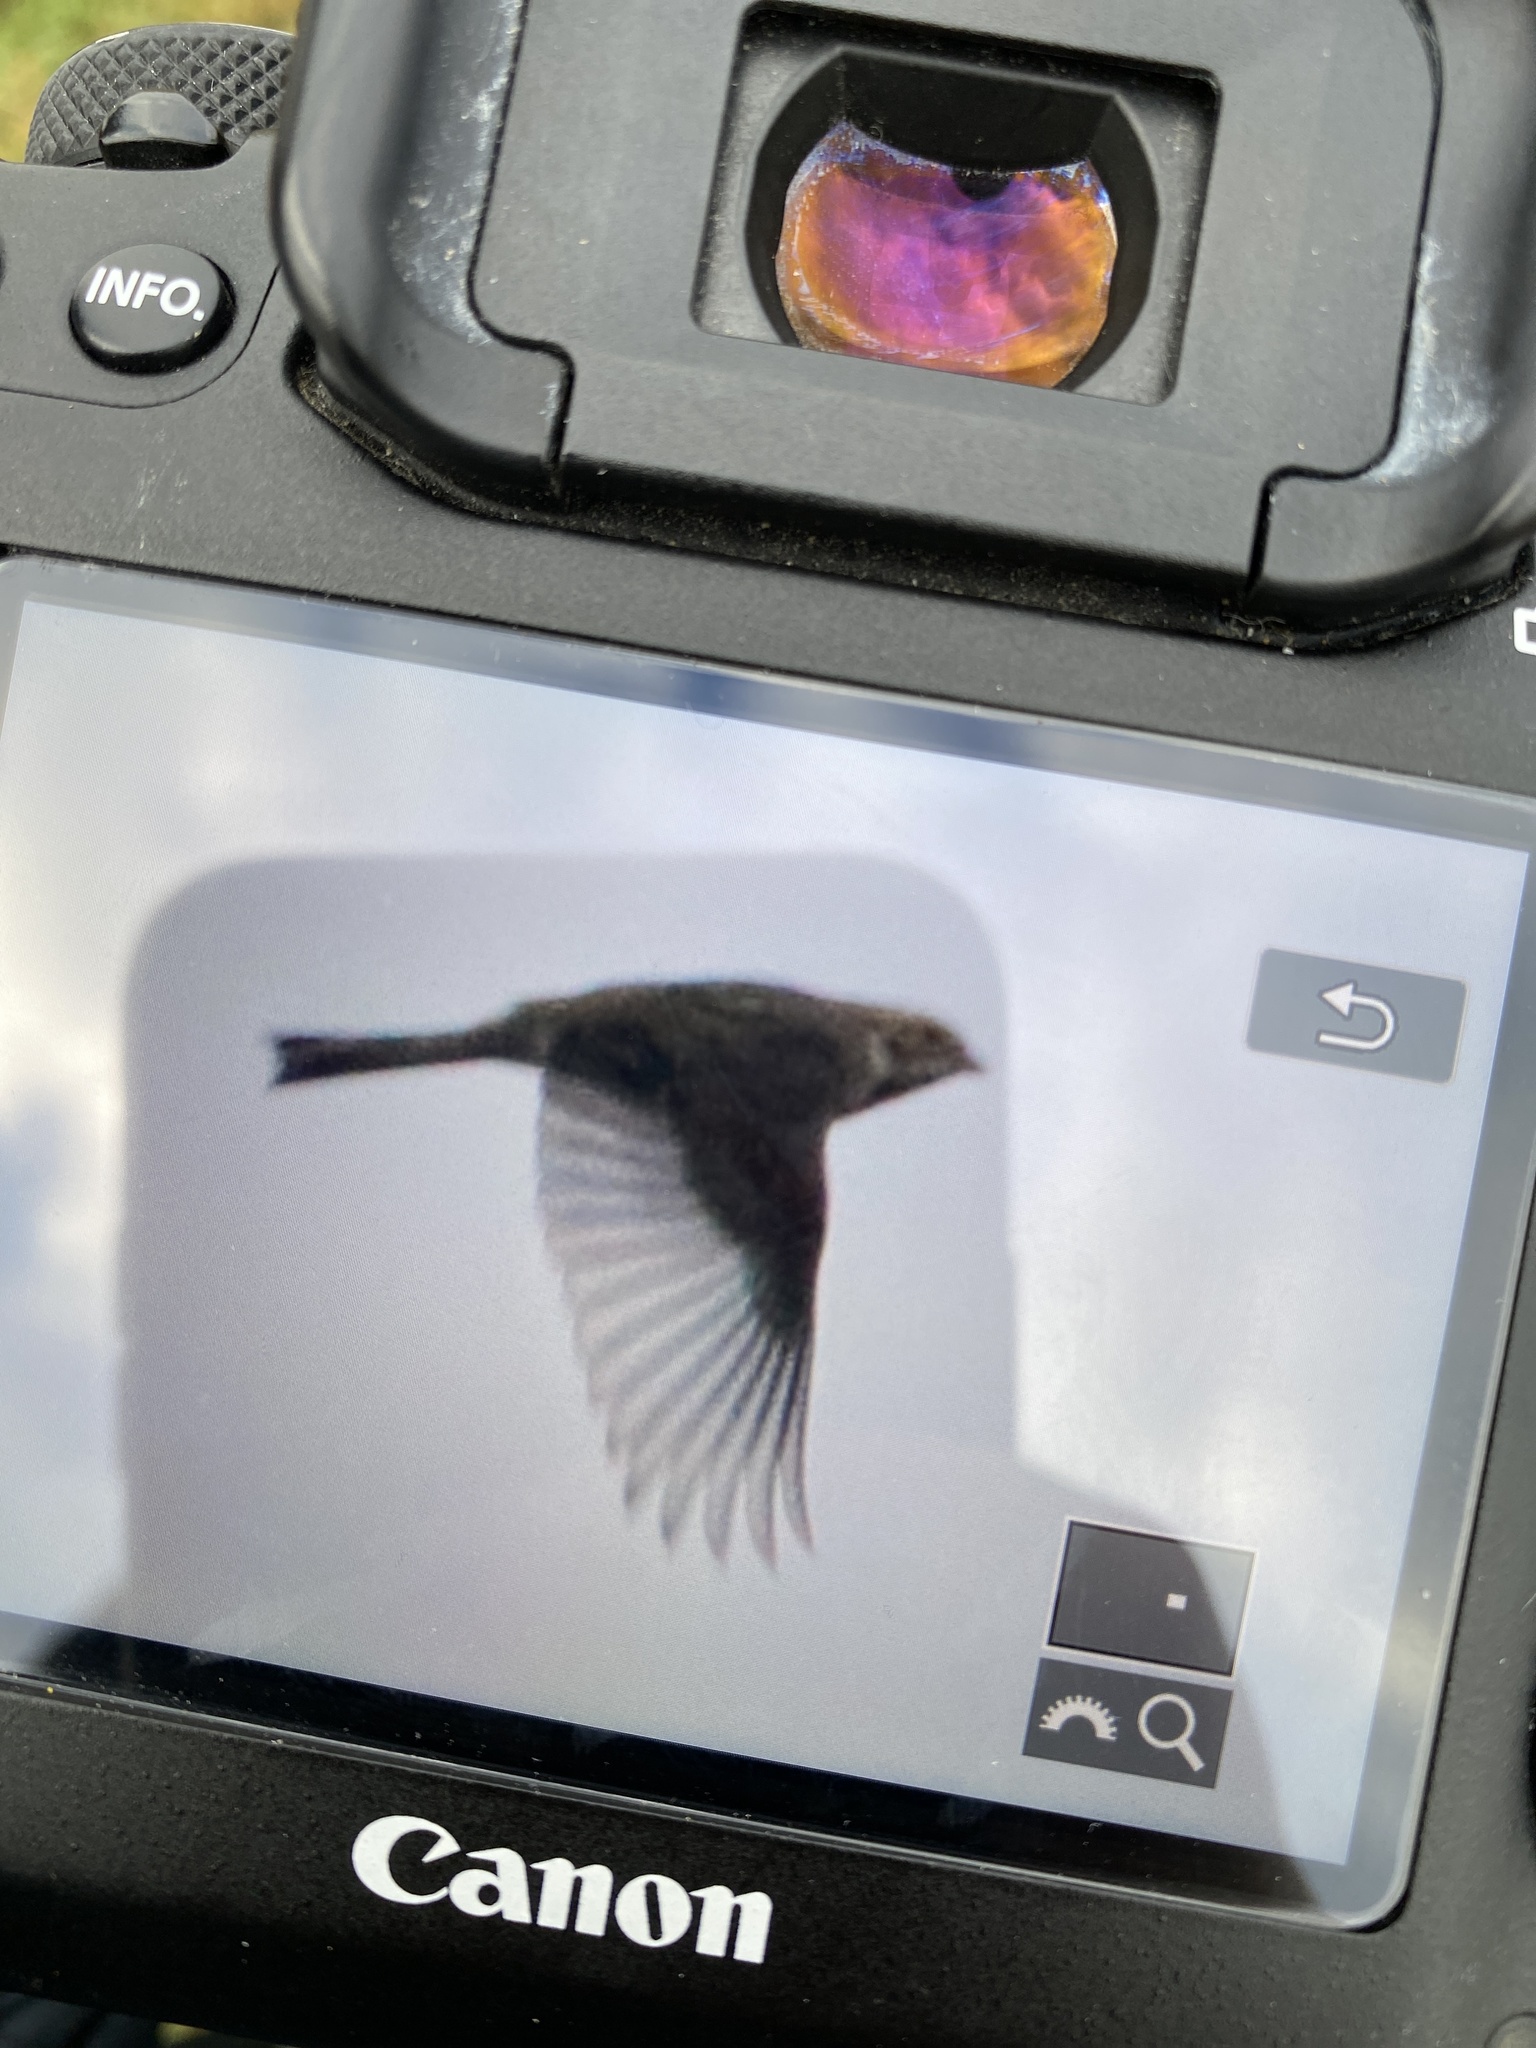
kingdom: Animalia
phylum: Chordata
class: Aves
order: Passeriformes
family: Emberizidae
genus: Emberiza
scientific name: Emberiza schoeniclus
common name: Reed bunting
